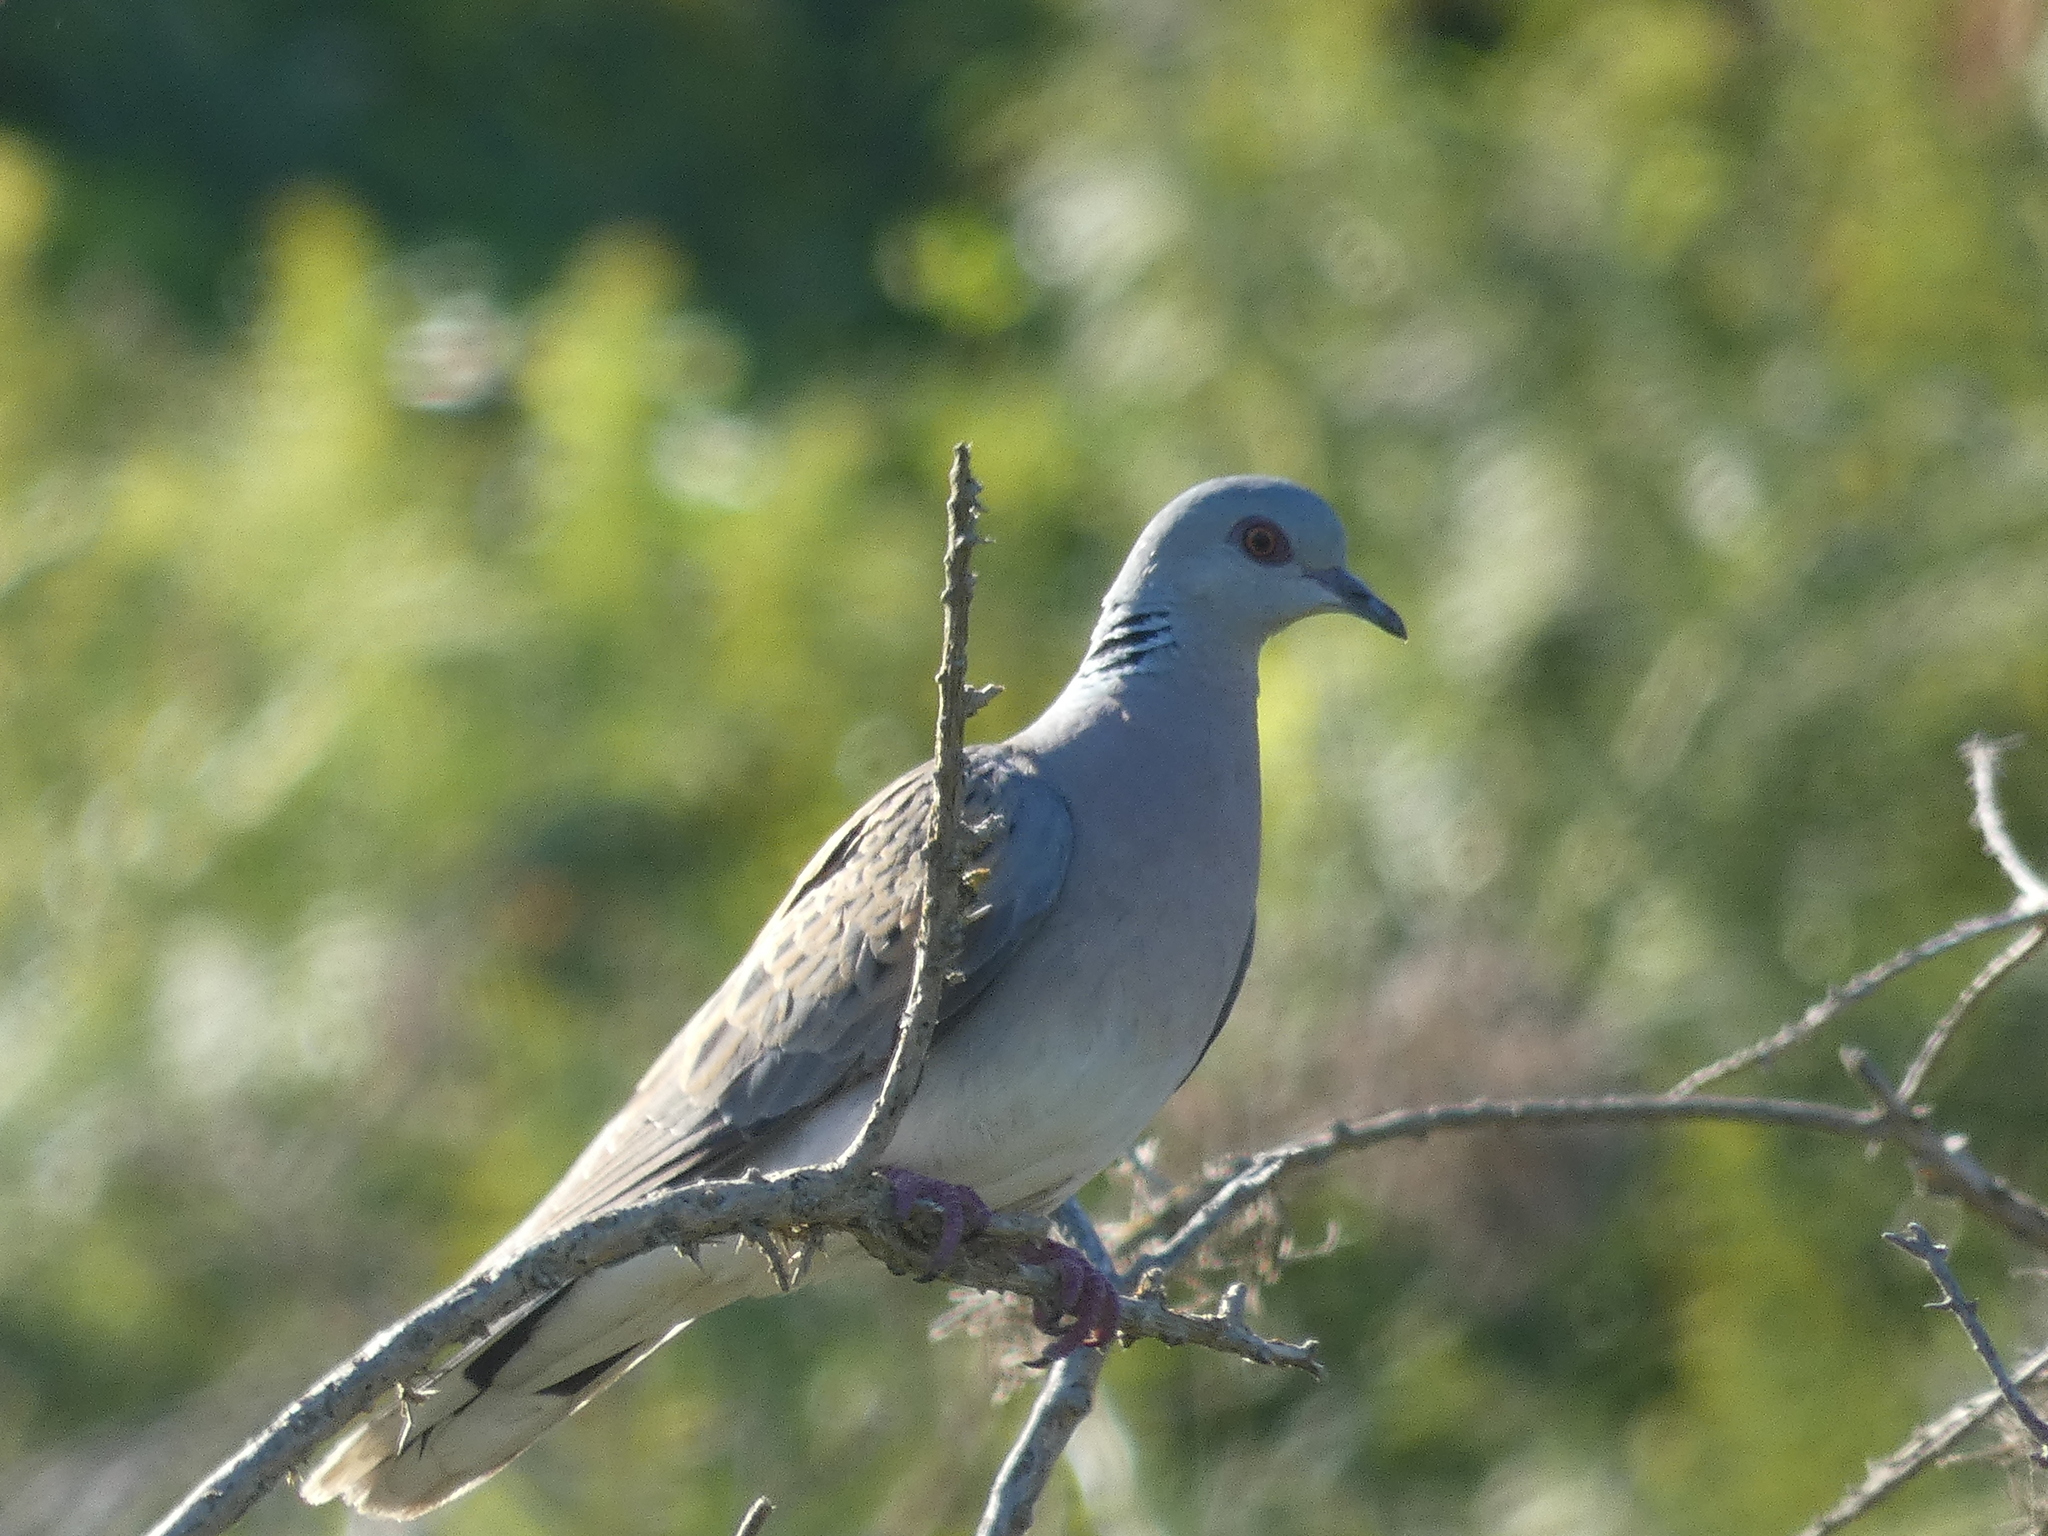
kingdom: Animalia
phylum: Chordata
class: Aves
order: Columbiformes
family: Columbidae
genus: Streptopelia
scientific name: Streptopelia turtur
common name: European turtle dove
